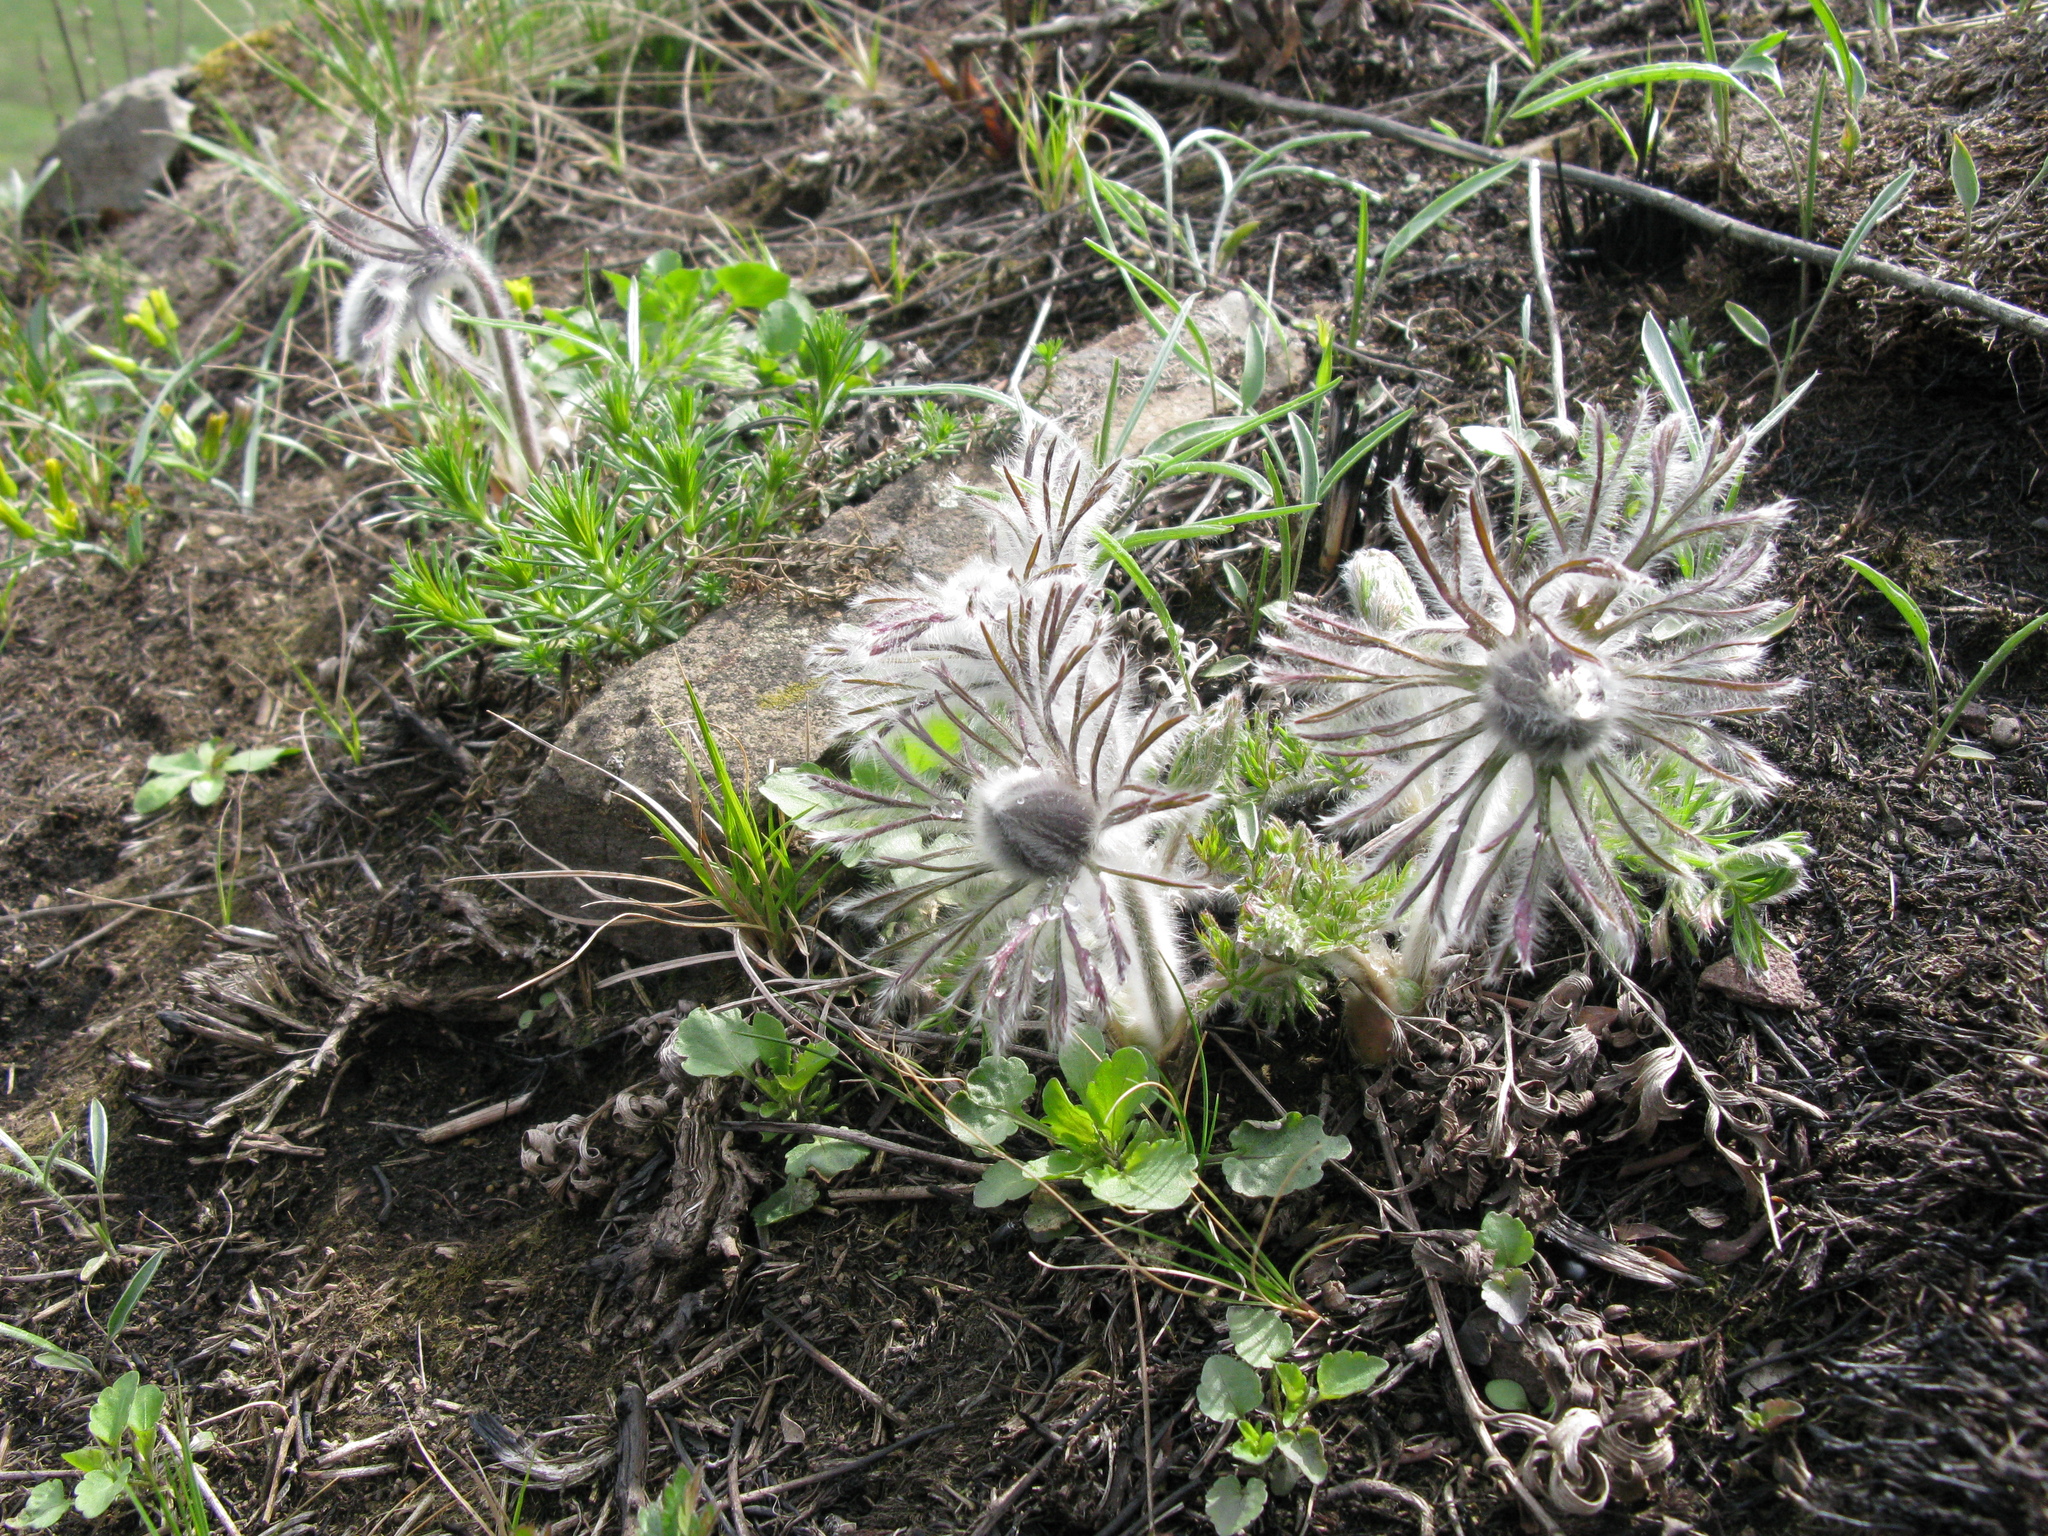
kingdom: Plantae
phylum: Tracheophyta
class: Magnoliopsida
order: Ranunculales
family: Ranunculaceae
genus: Pulsatilla
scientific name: Pulsatilla pratensis
